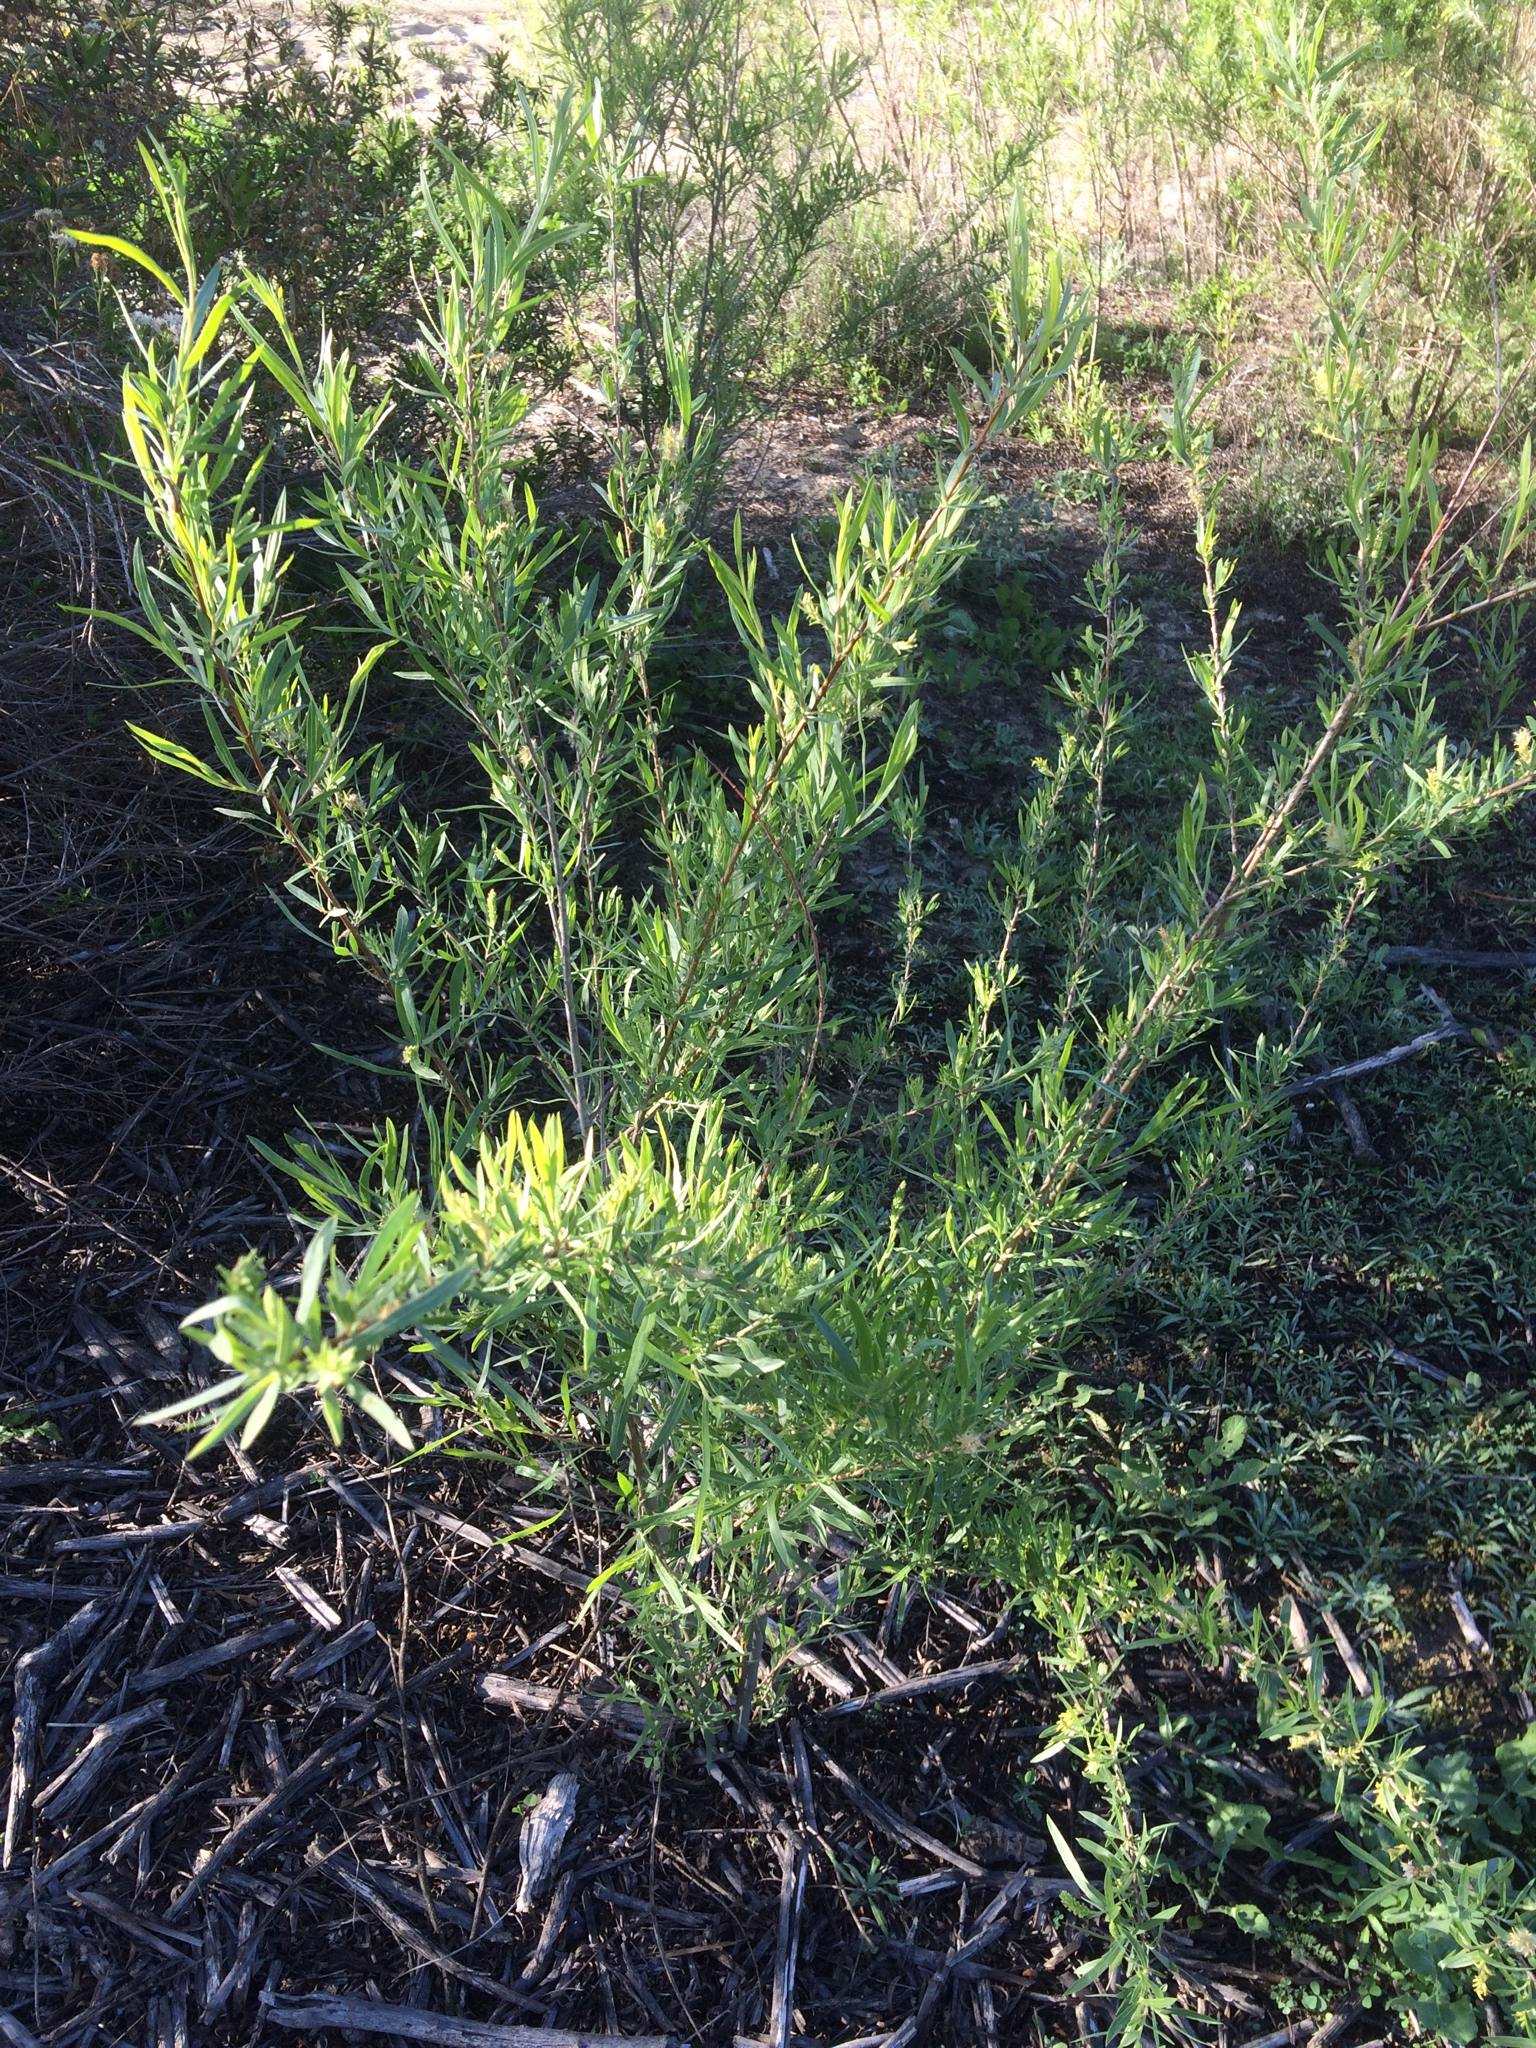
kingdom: Plantae
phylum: Tracheophyta
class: Magnoliopsida
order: Malpighiales
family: Salicaceae
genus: Salix
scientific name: Salix exigua
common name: Coyote willow
